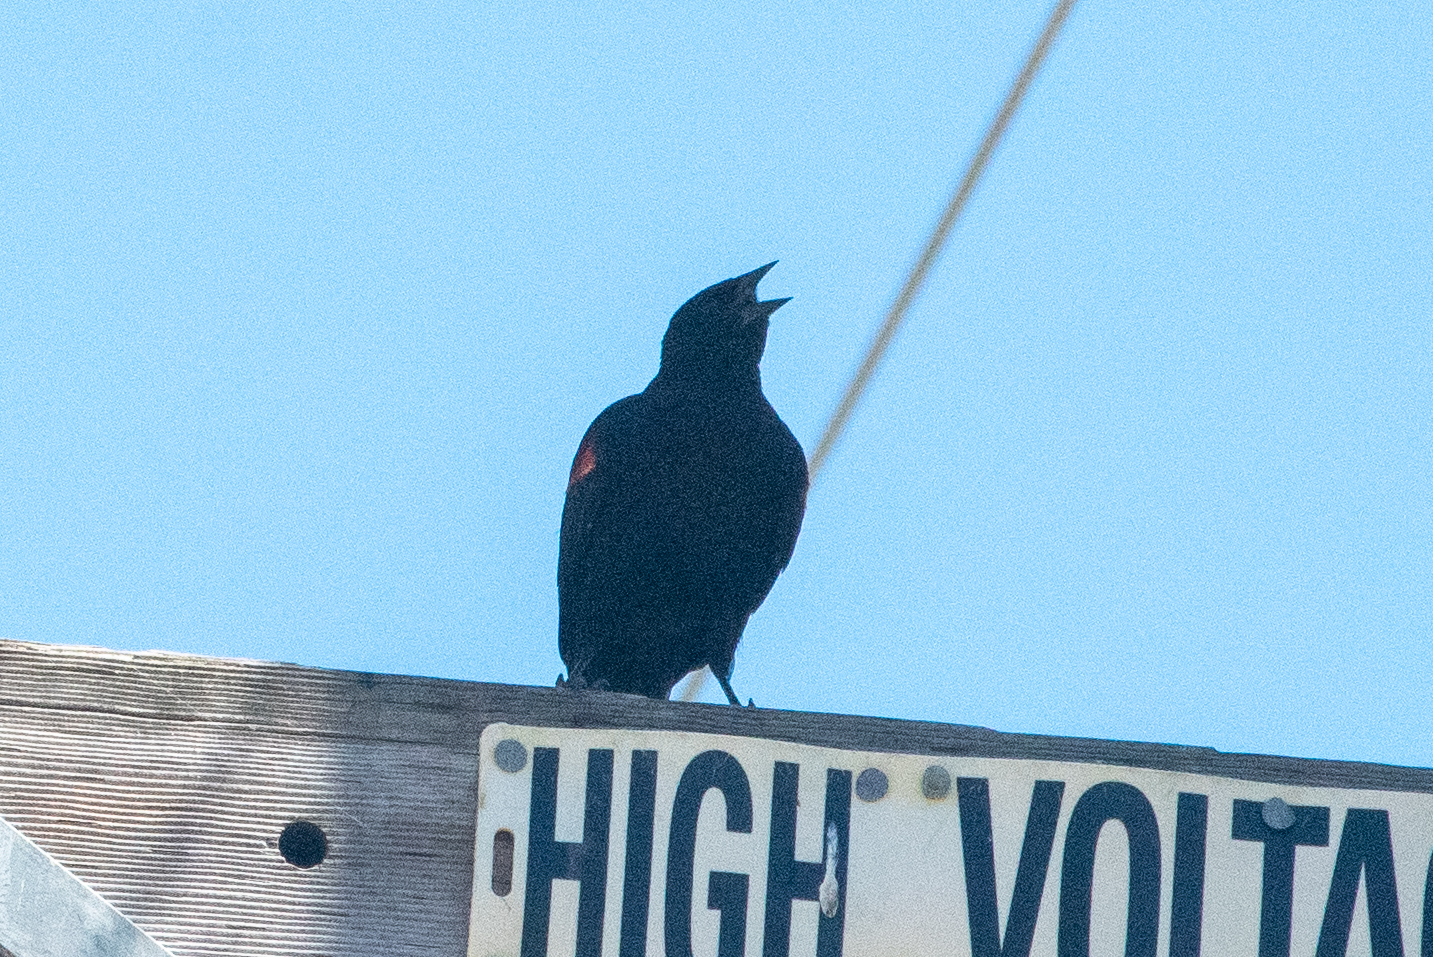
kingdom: Animalia
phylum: Chordata
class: Aves
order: Passeriformes
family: Icteridae
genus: Agelaius
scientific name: Agelaius phoeniceus
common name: Red-winged blackbird
